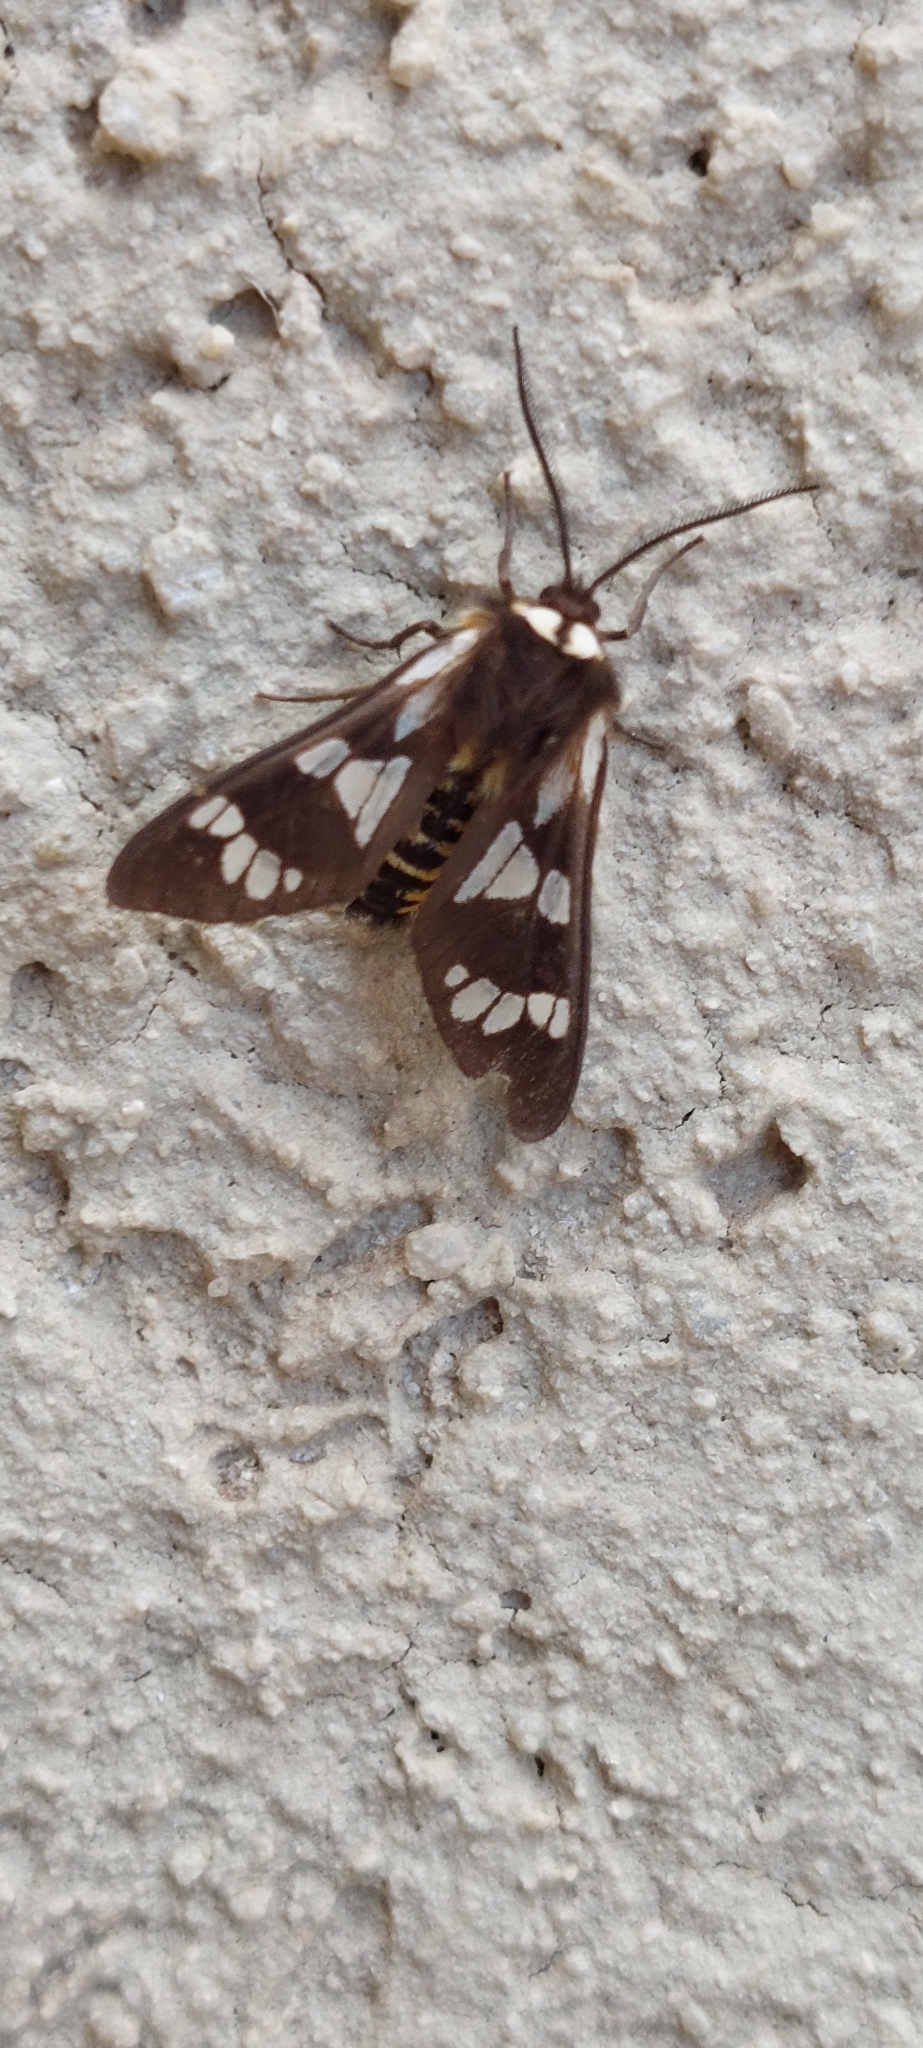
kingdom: Animalia
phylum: Arthropoda
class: Insecta
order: Lepidoptera
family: Erebidae
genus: Eurata
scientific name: Eurata
